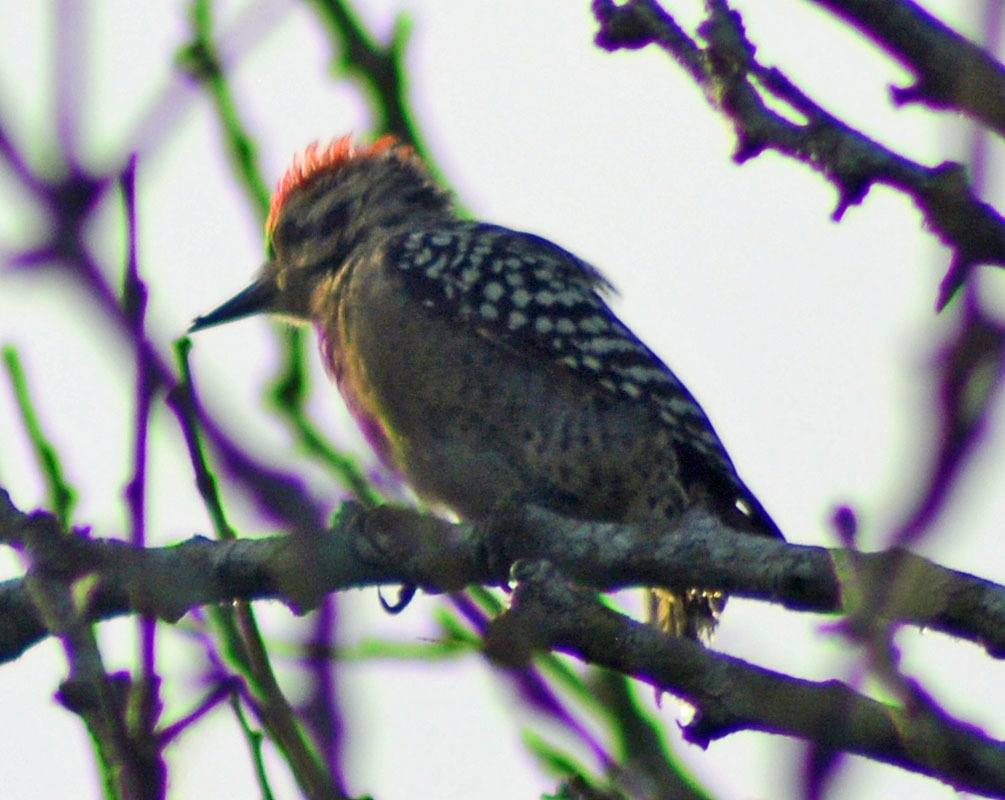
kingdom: Animalia
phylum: Chordata
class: Aves
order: Piciformes
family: Picidae
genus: Dryobates
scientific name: Dryobates scalaris
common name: Ladder-backed woodpecker
